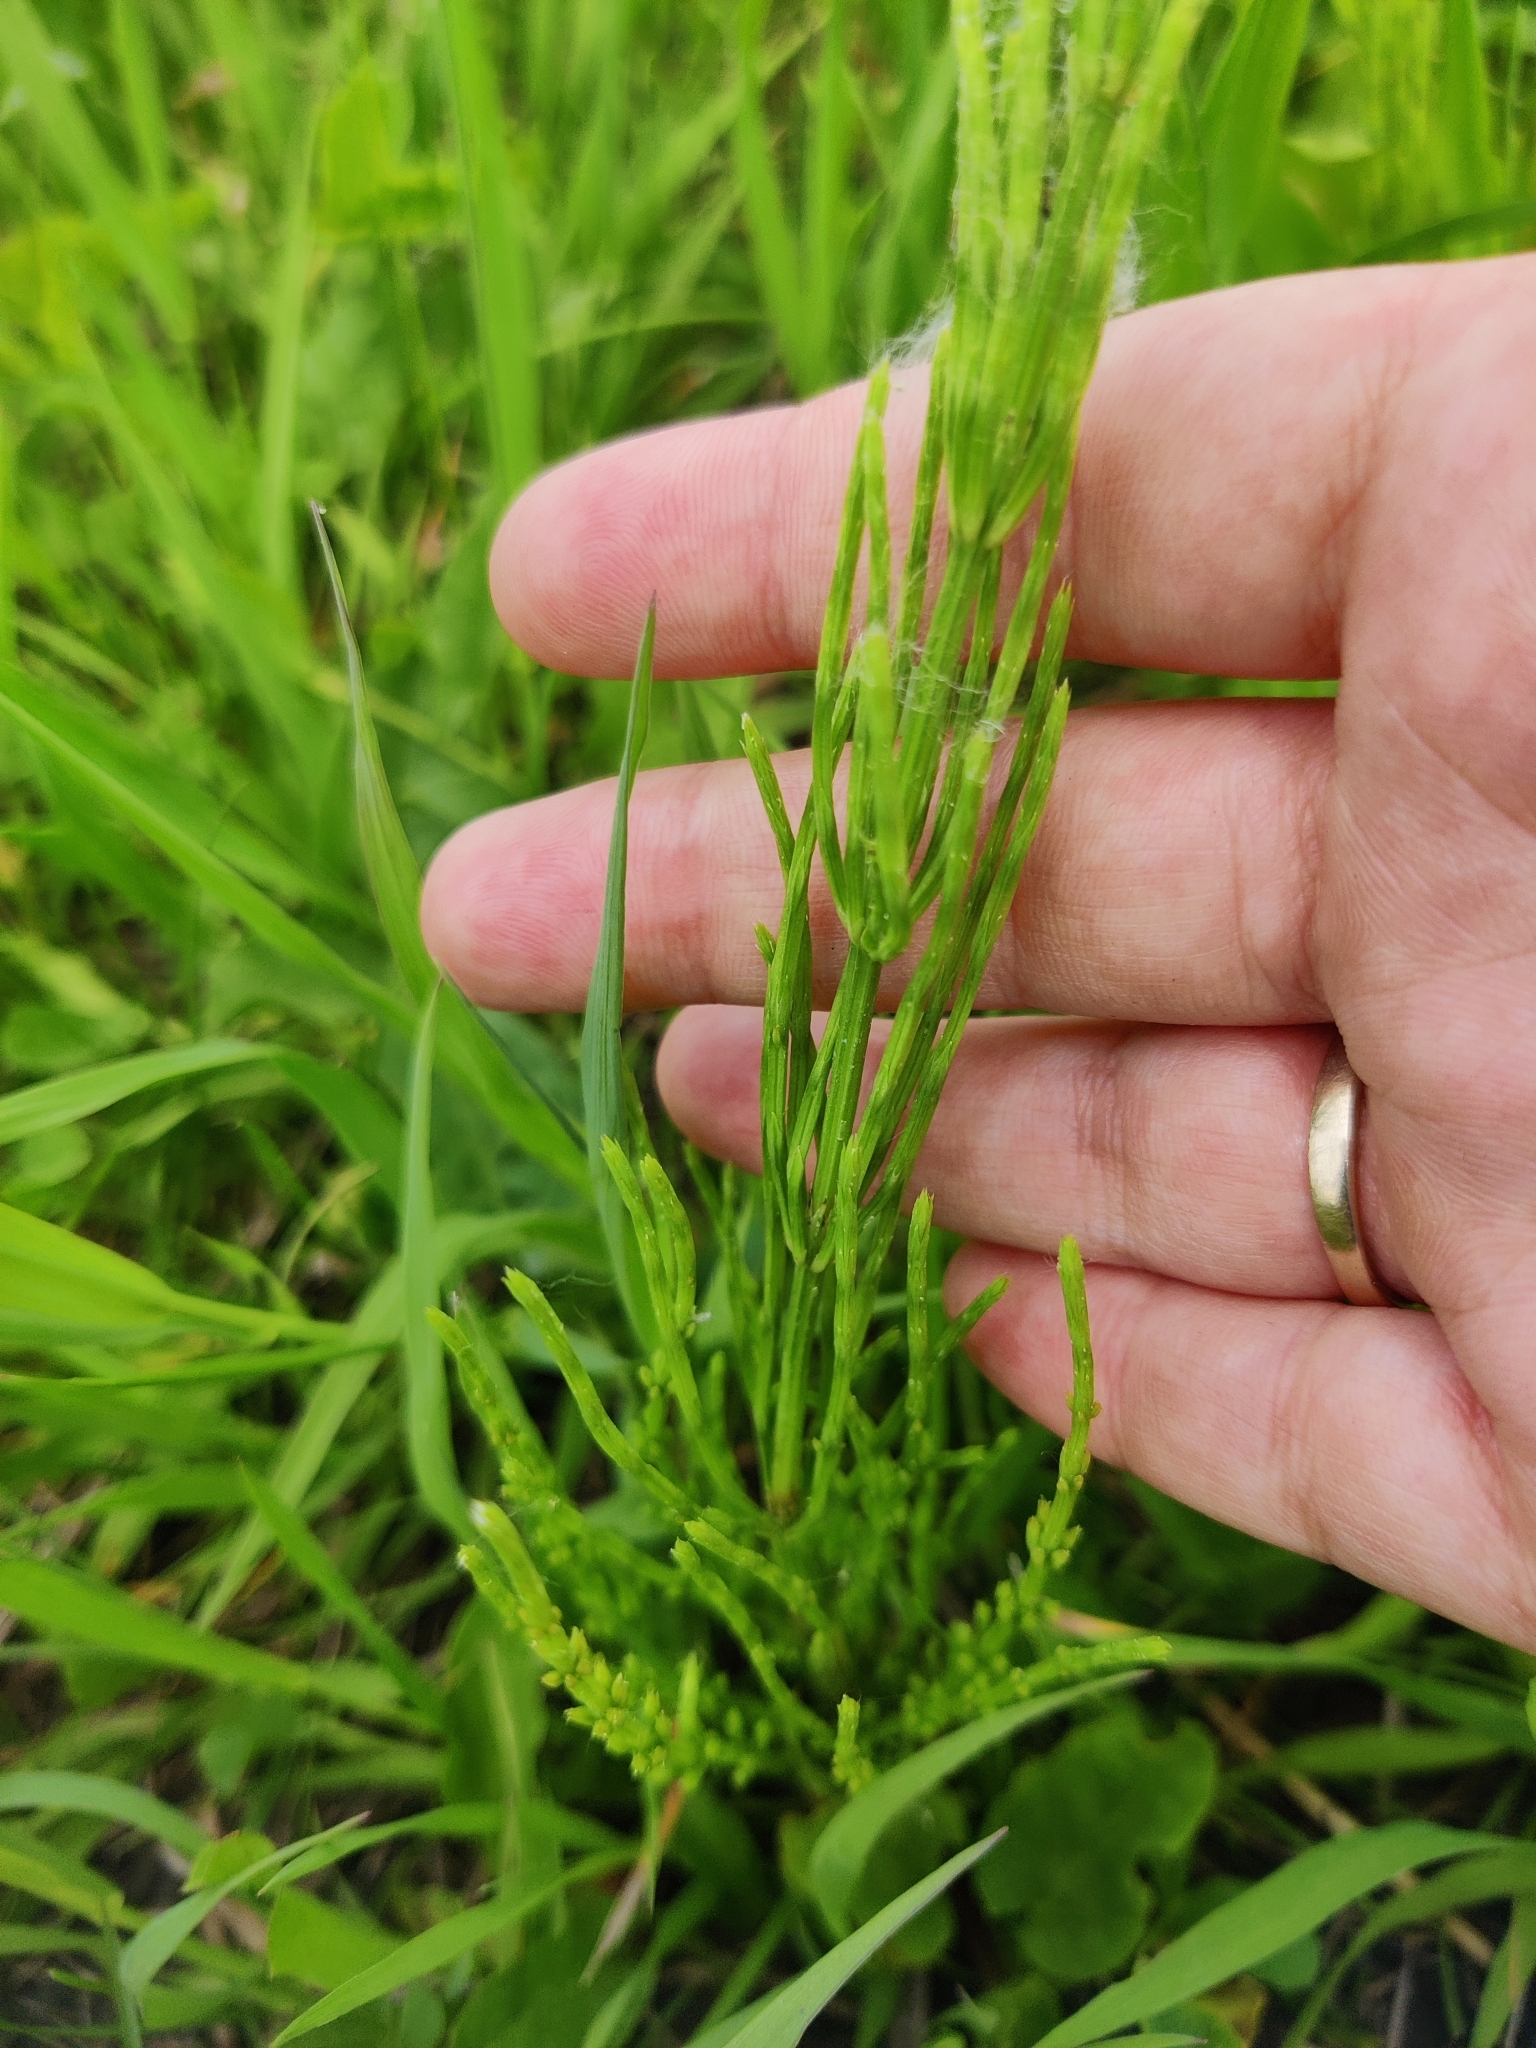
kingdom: Plantae
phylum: Tracheophyta
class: Polypodiopsida
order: Equisetales
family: Equisetaceae
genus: Equisetum
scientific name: Equisetum arvense
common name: Field horsetail
